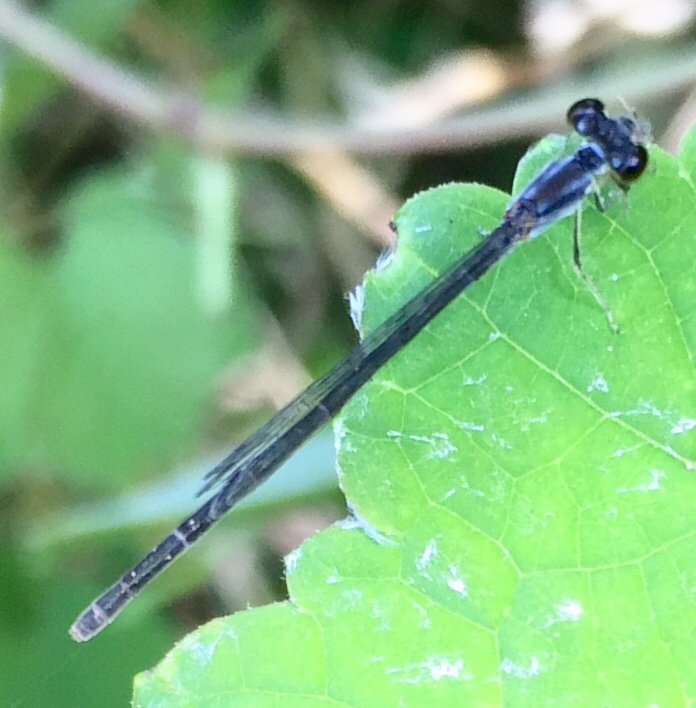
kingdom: Animalia
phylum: Arthropoda
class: Insecta
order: Odonata
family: Coenagrionidae
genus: Ischnura
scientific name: Ischnura posita
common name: Fragile forktail
